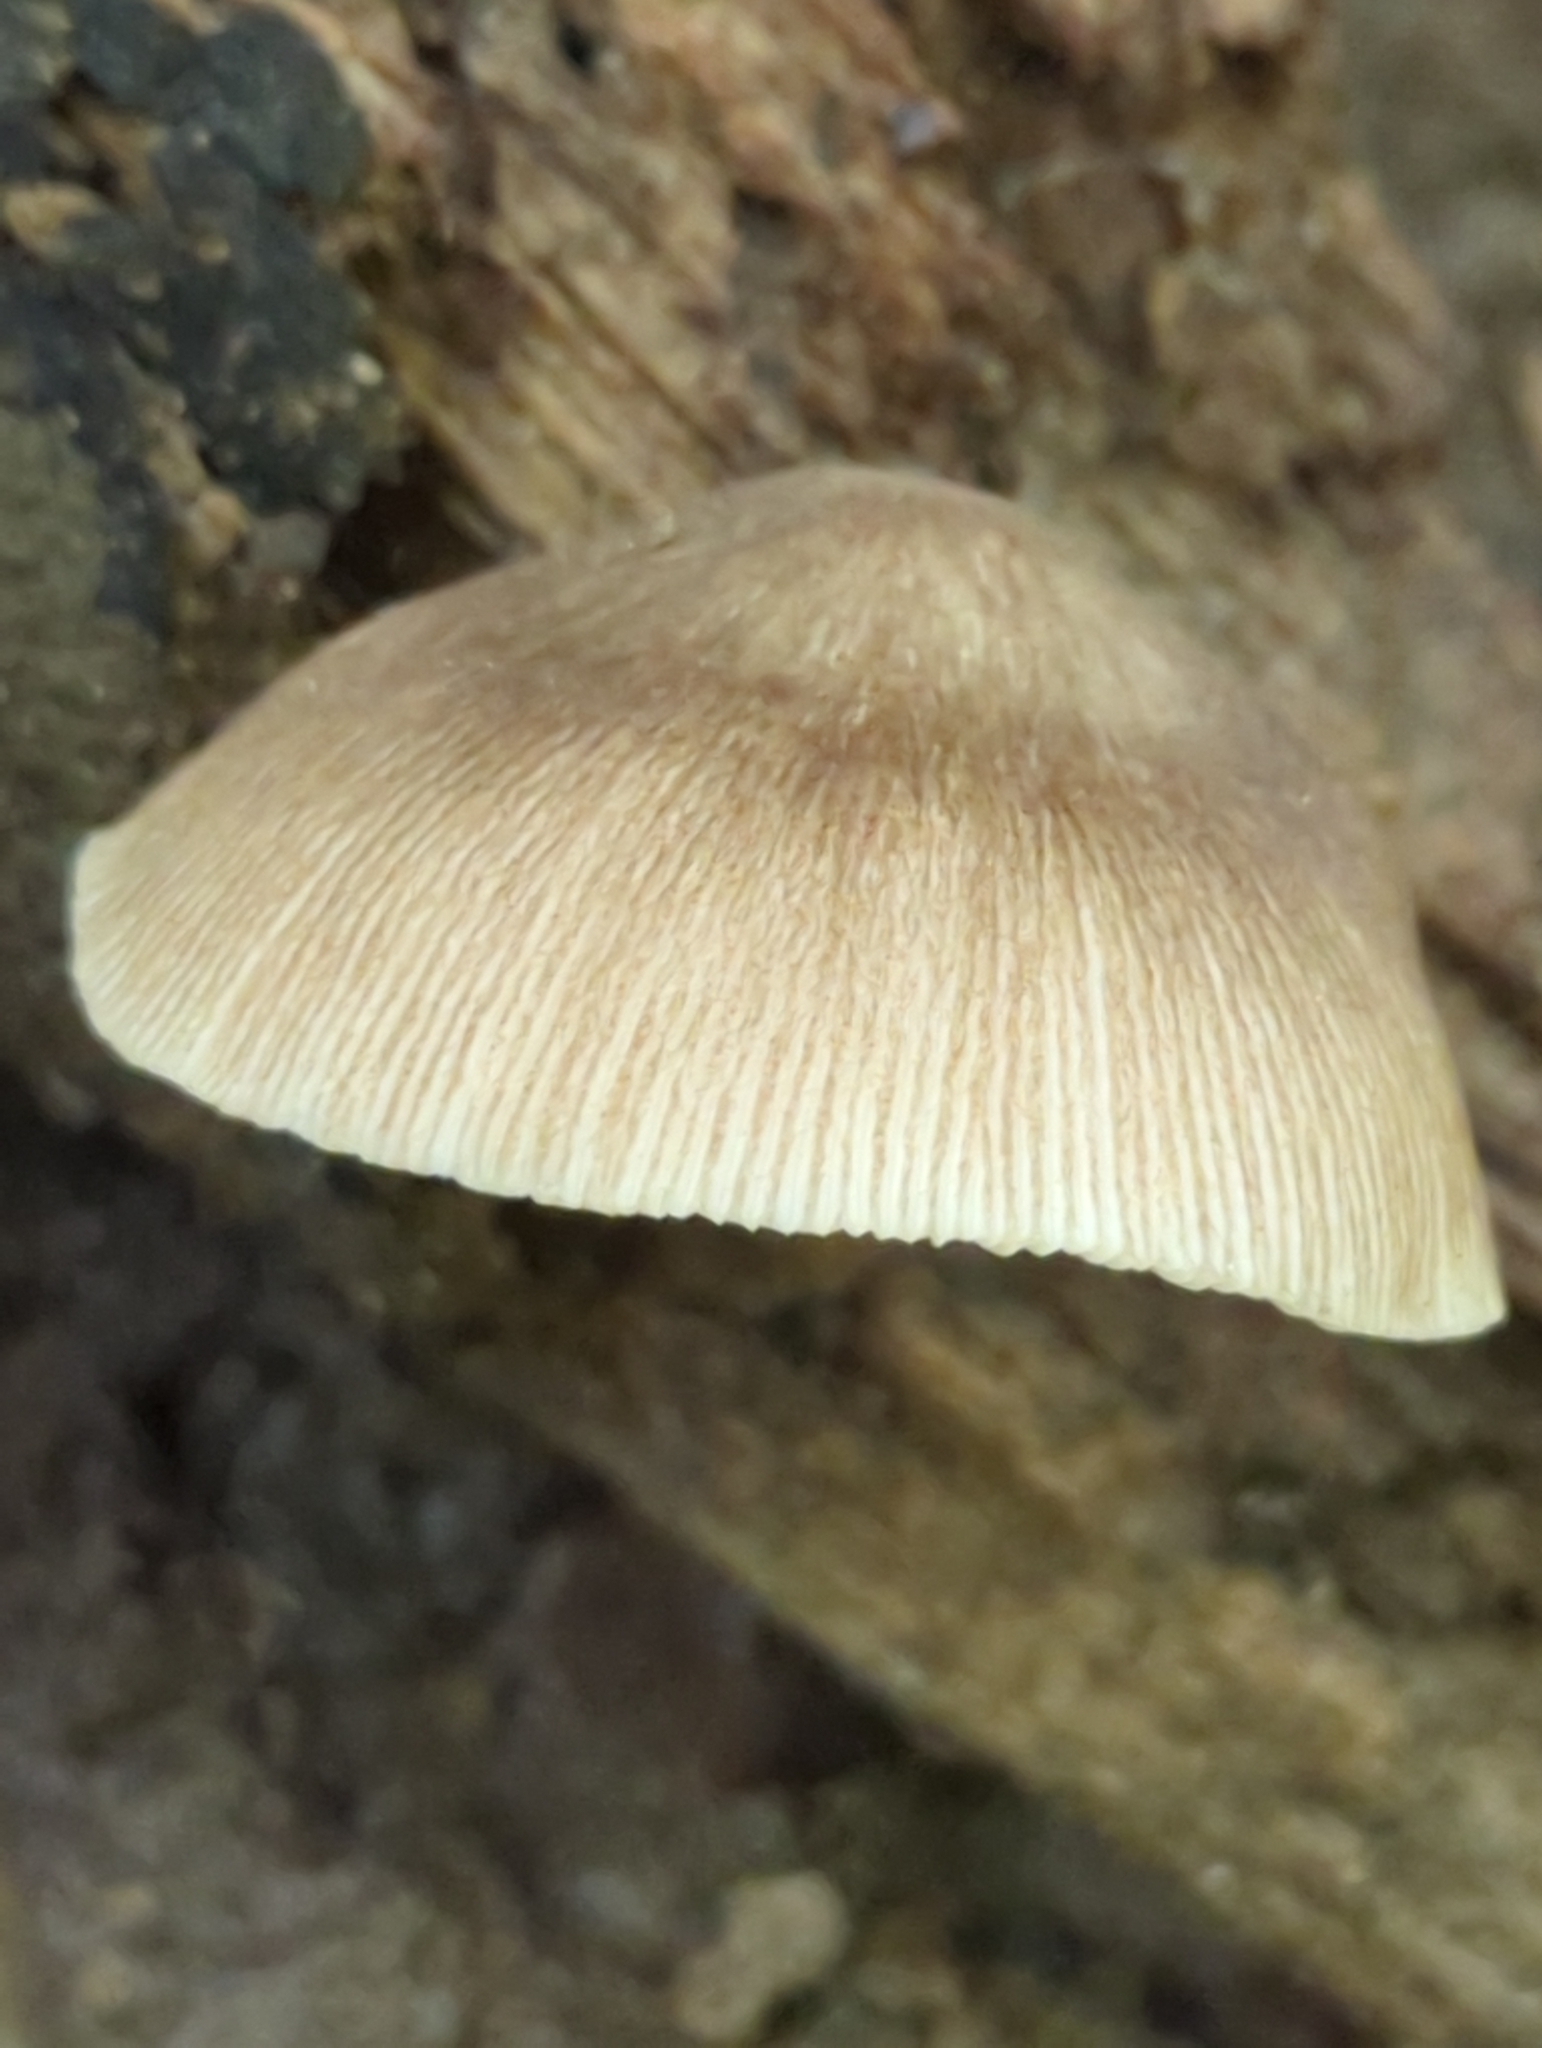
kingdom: Fungi
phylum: Basidiomycota
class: Agaricomycetes
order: Agaricales
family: Pluteaceae
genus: Pluteus
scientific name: Pluteus longistriatus
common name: Pleated pluteus
